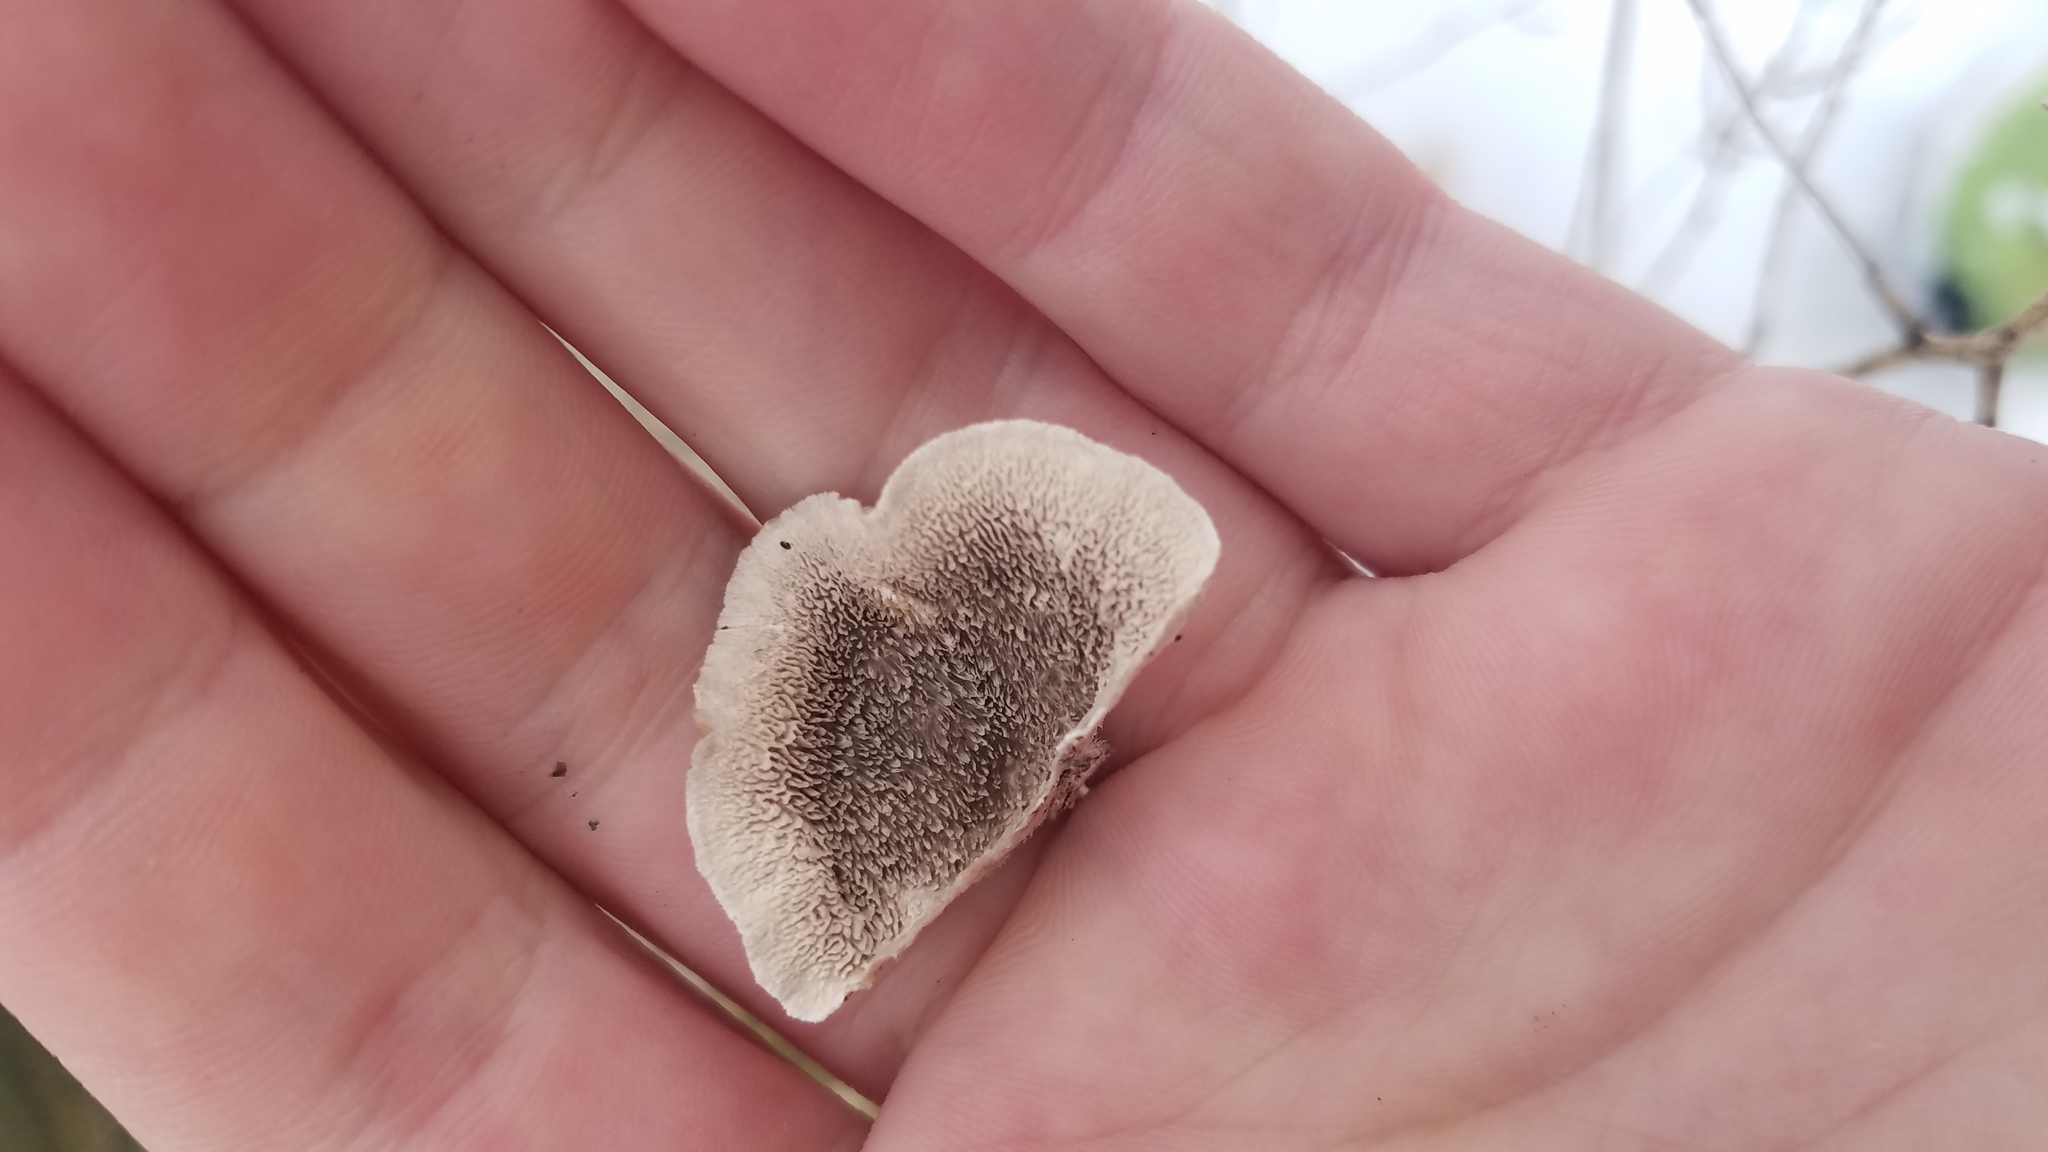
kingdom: Fungi
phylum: Basidiomycota
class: Agaricomycetes
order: Polyporales
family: Cerrenaceae
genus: Cerrena
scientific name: Cerrena unicolor
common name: Mossy maze polypore
